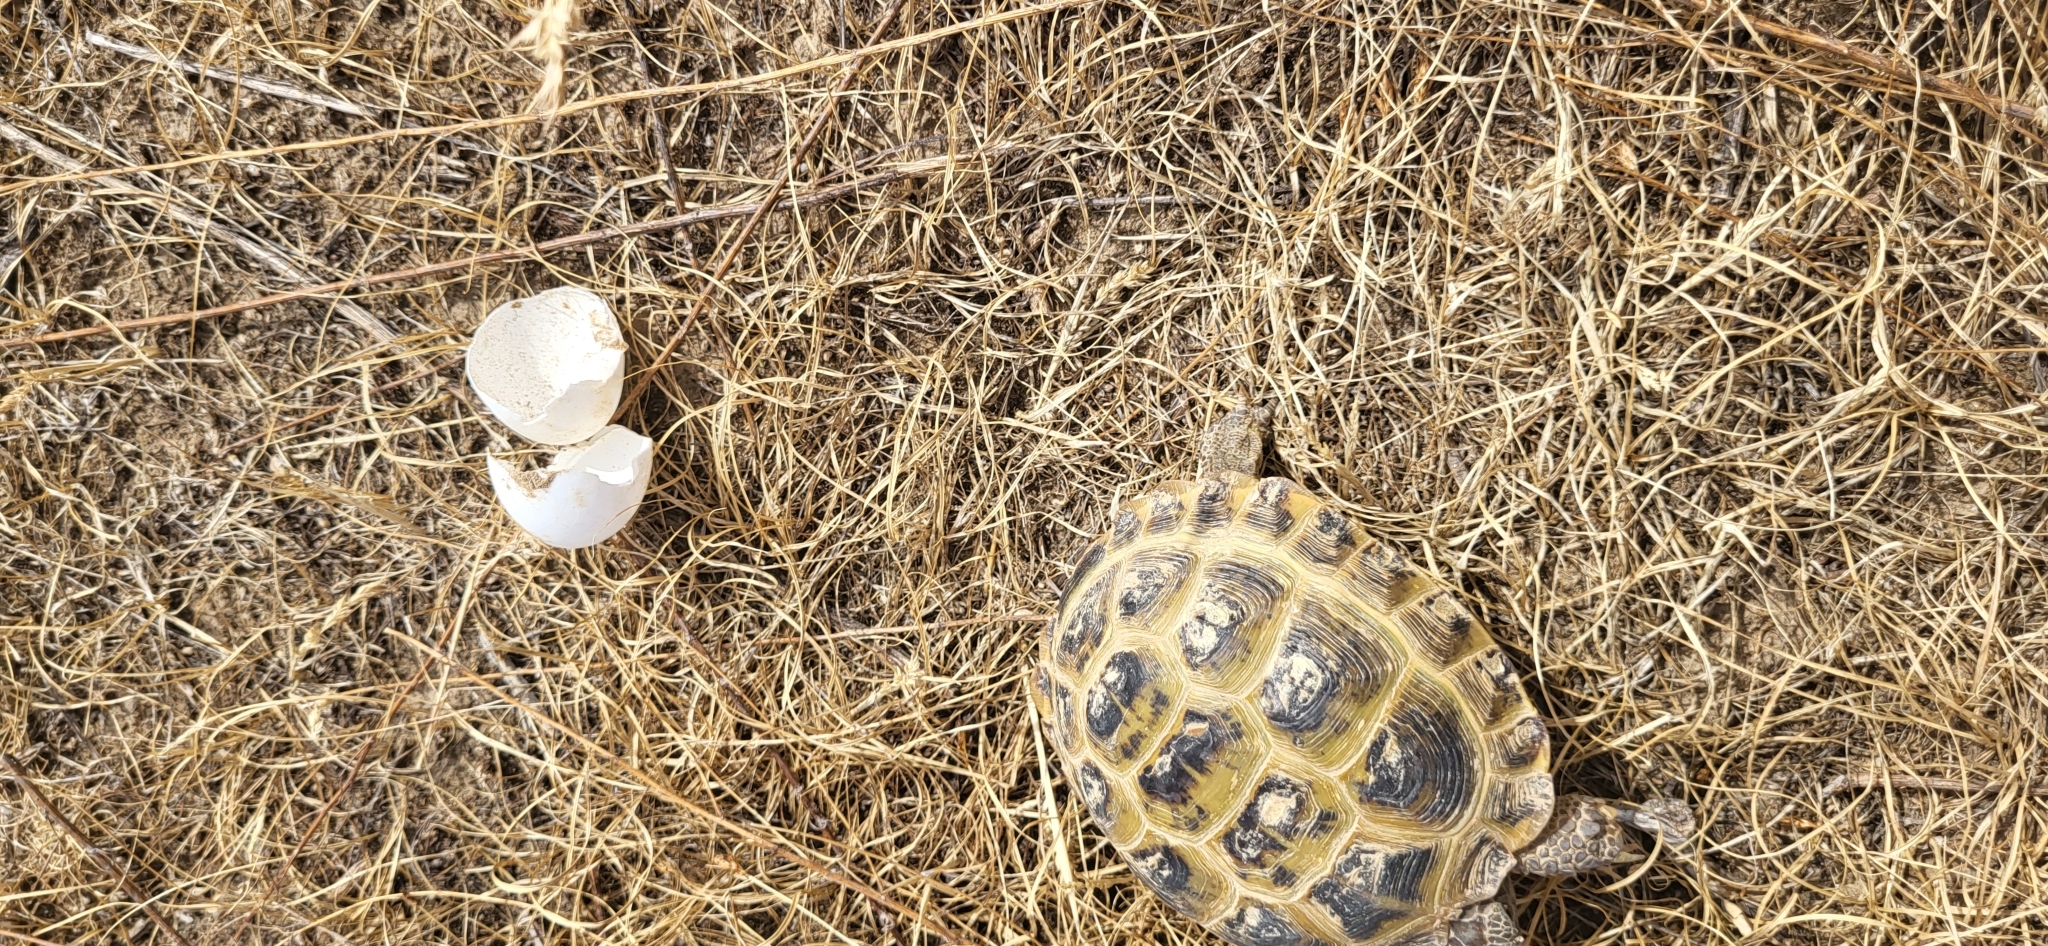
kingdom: Animalia
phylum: Chordata
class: Testudines
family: Testudinidae
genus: Testudo
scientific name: Testudo horsfieldii
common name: Central asia tortoise
